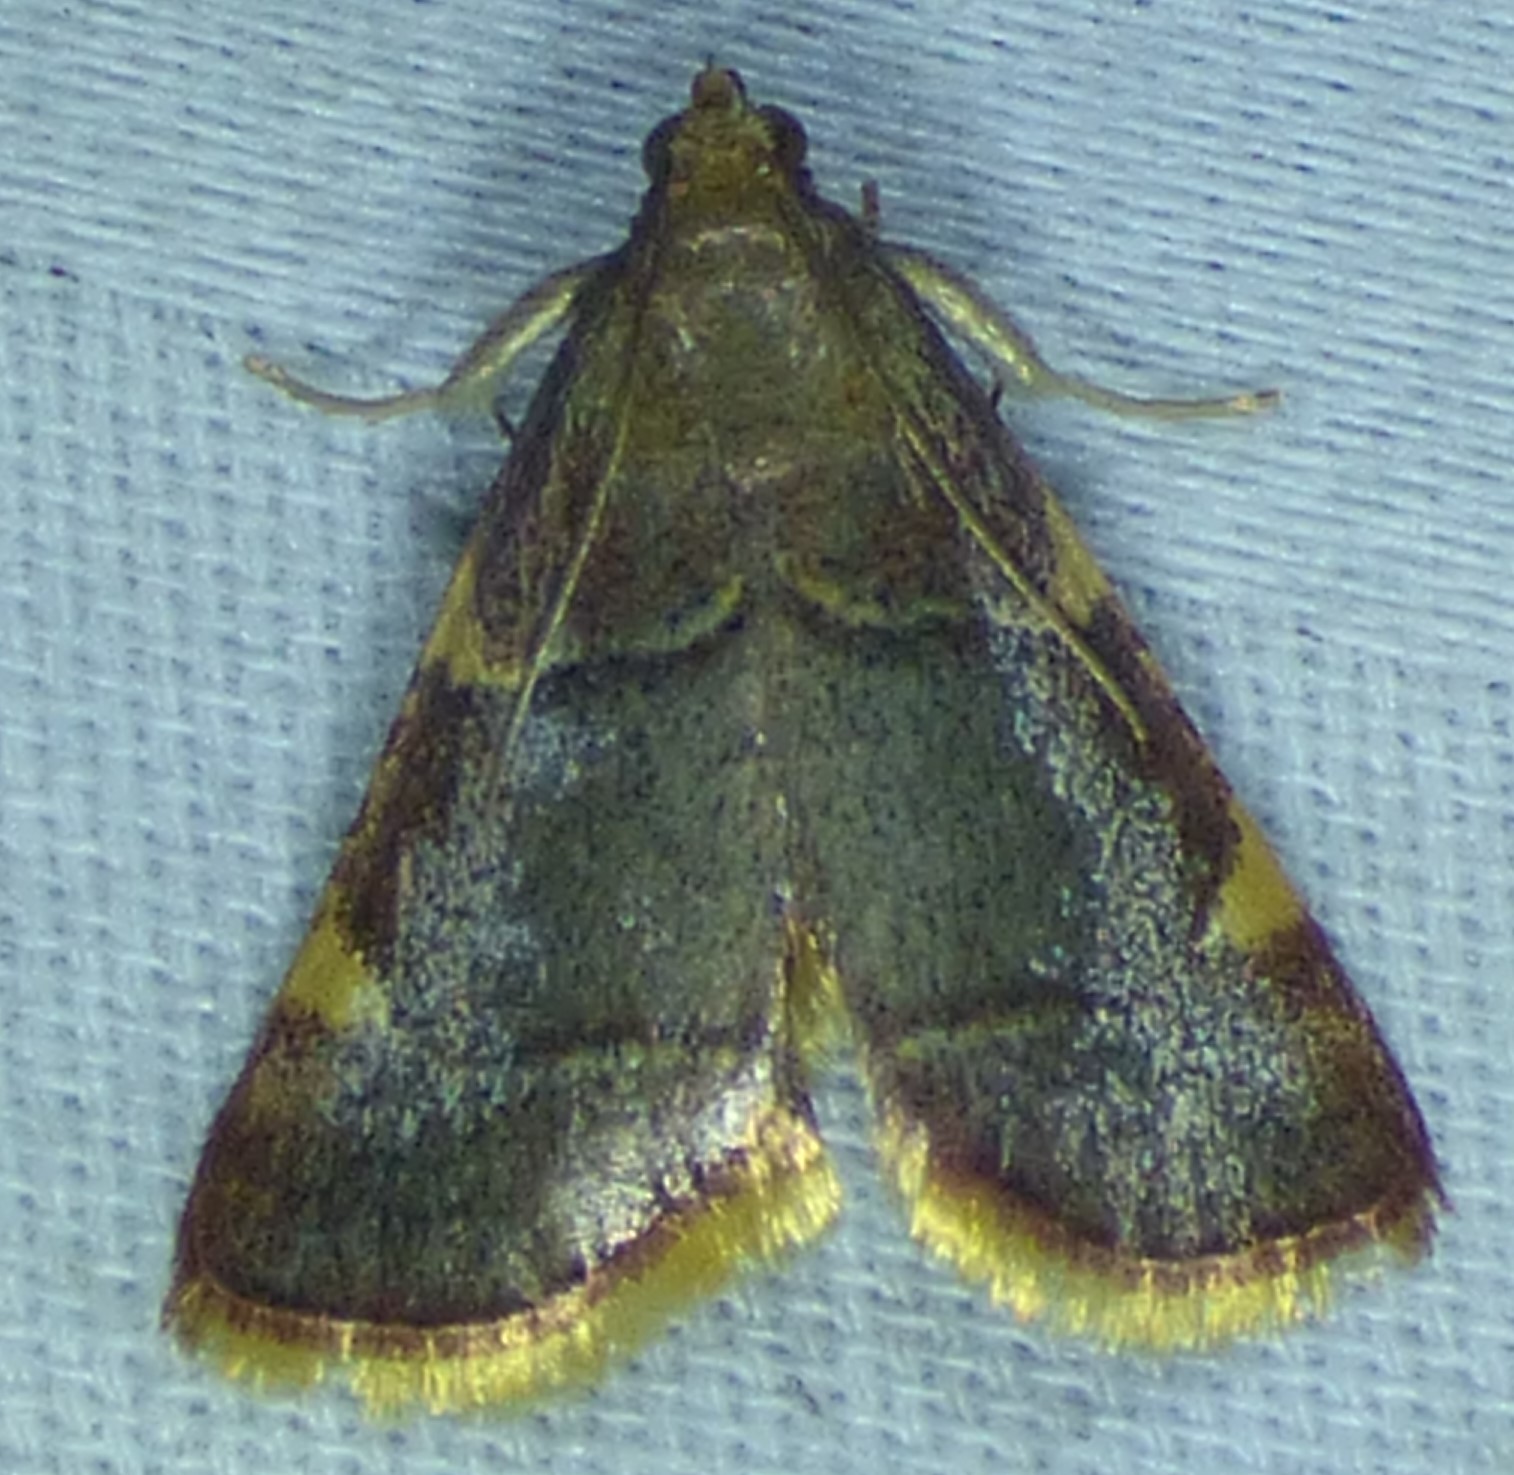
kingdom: Animalia
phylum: Arthropoda
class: Insecta
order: Lepidoptera
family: Pyralidae
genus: Hypsopygia
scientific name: Hypsopygia olinalis
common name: Yellow-fringed dolichomia moth
